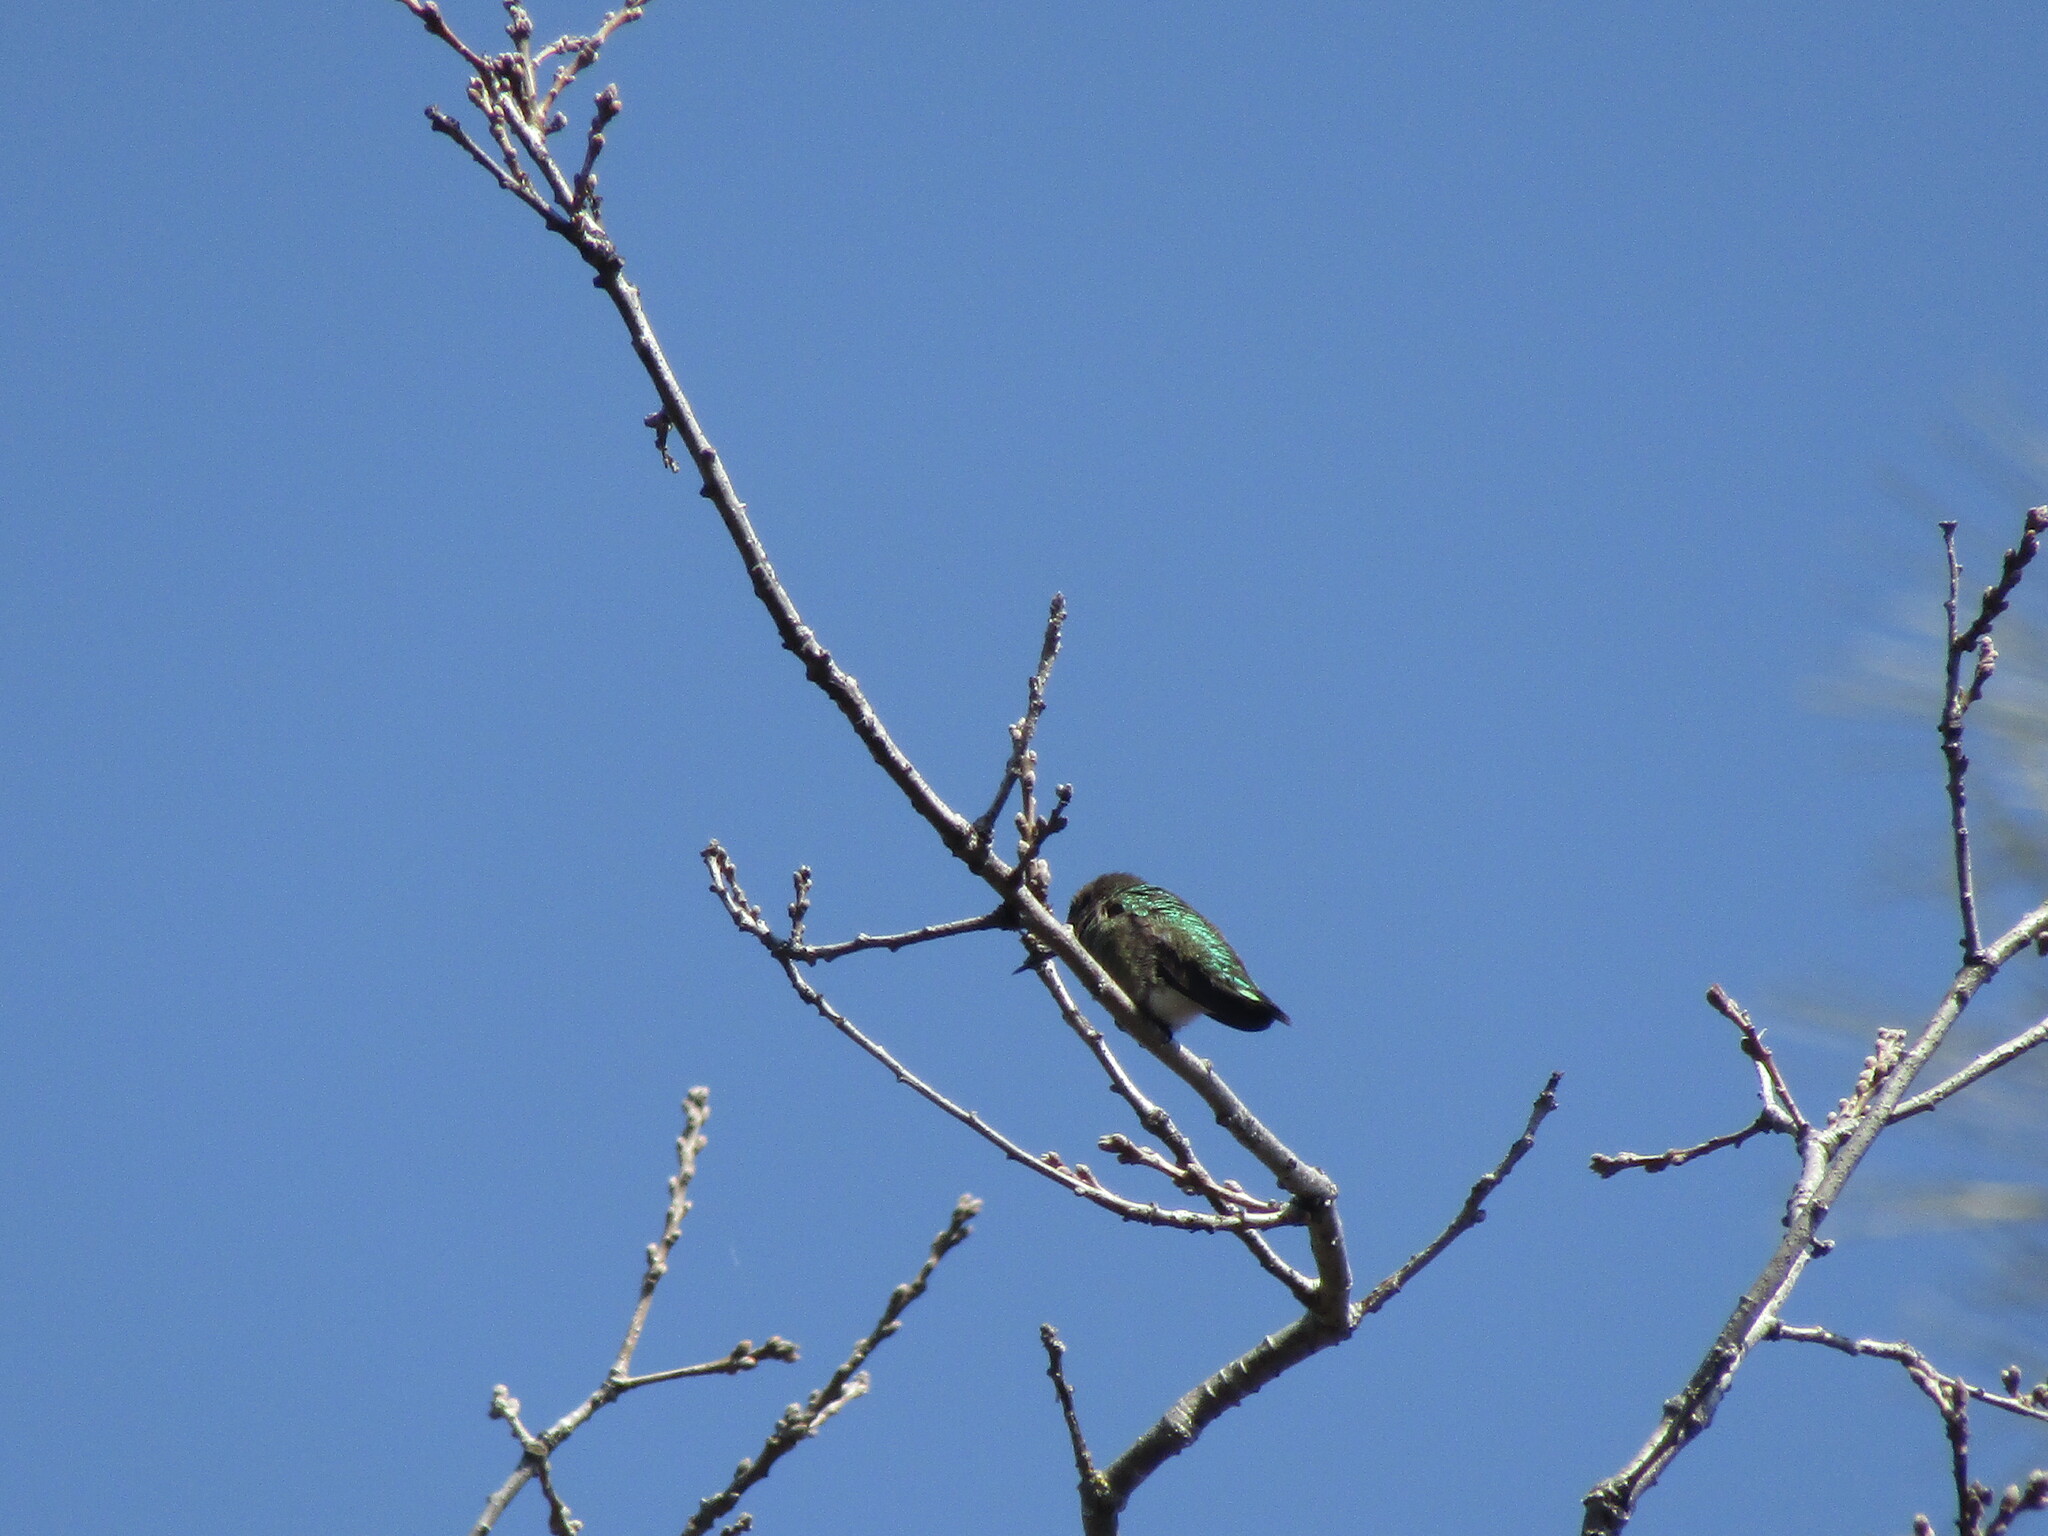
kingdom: Animalia
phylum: Chordata
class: Aves
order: Apodiformes
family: Trochilidae
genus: Calypte
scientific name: Calypte anna
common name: Anna's hummingbird
